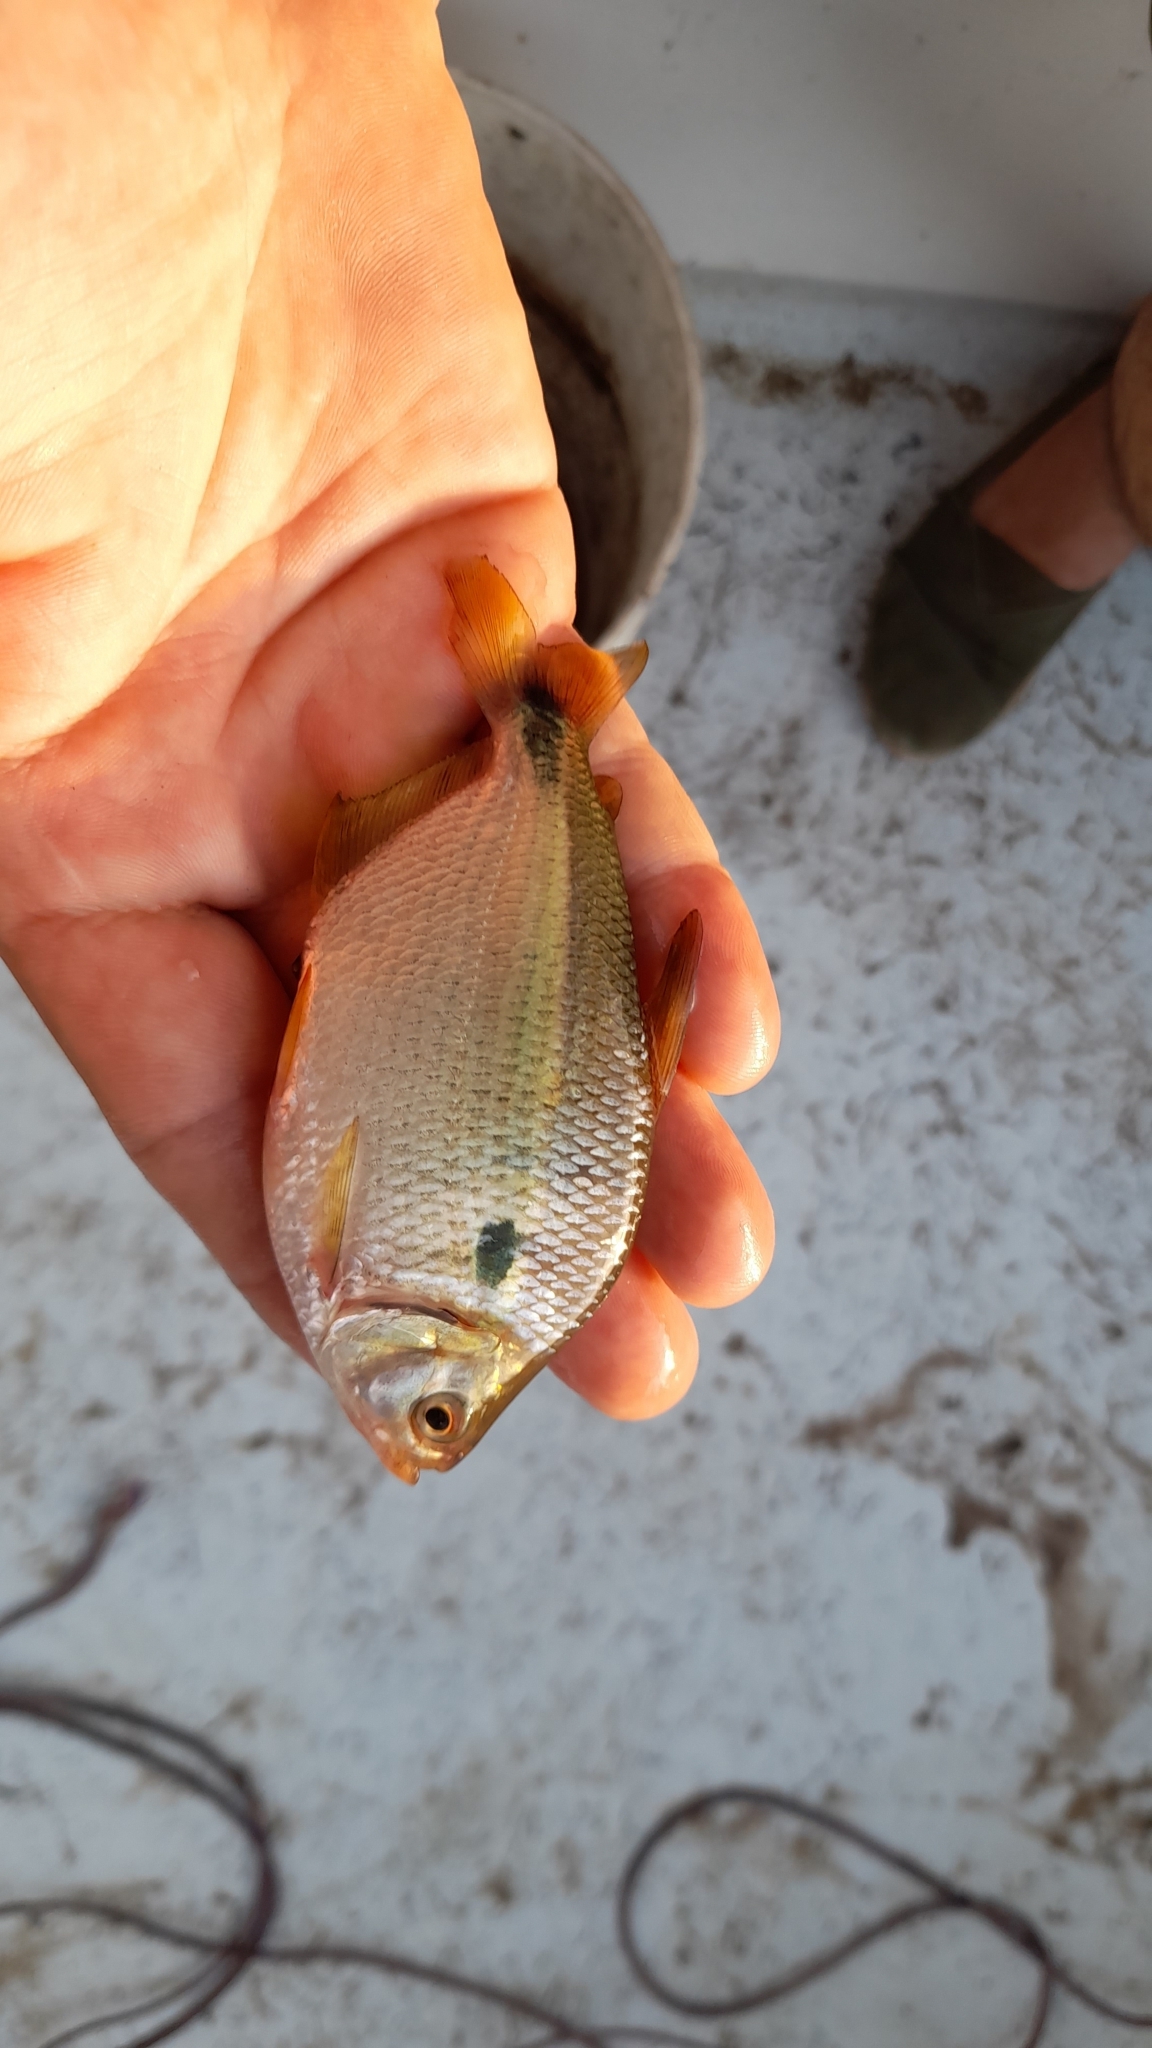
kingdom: Animalia
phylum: Chordata
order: Characiformes
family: Characidae
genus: Astyanax
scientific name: Astyanax abramis
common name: Tetra
